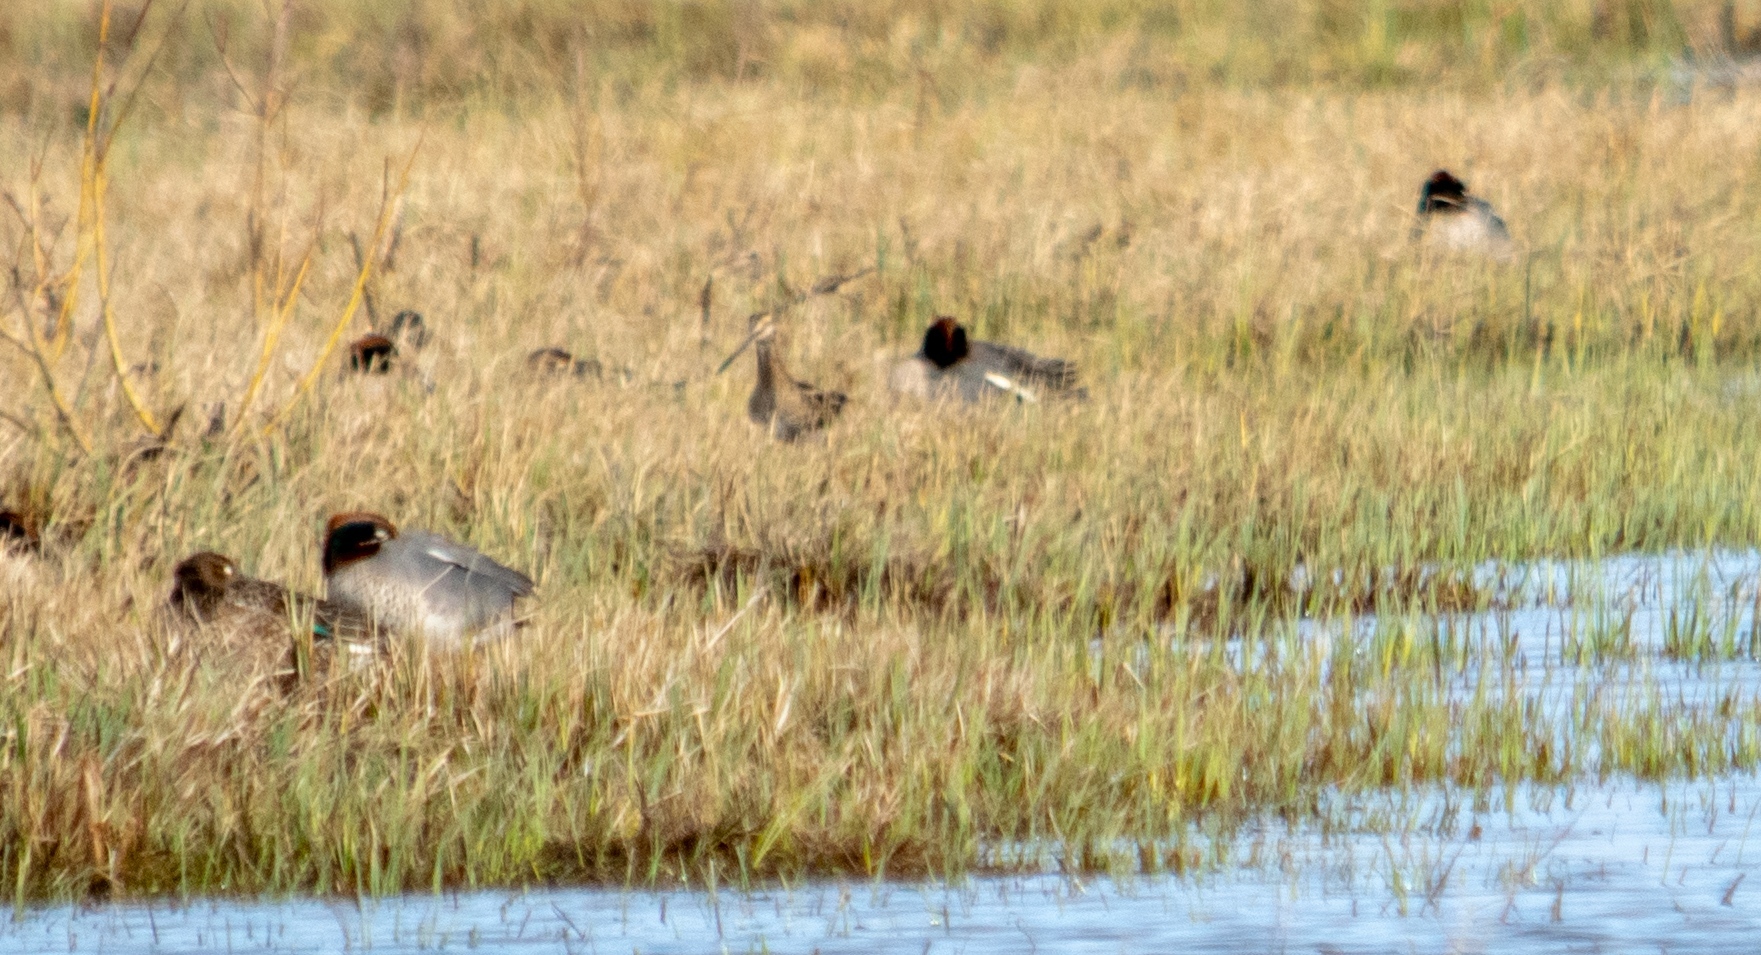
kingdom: Animalia
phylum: Chordata
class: Aves
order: Charadriiformes
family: Scolopacidae
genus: Gallinago
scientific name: Gallinago gallinago
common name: Common snipe
